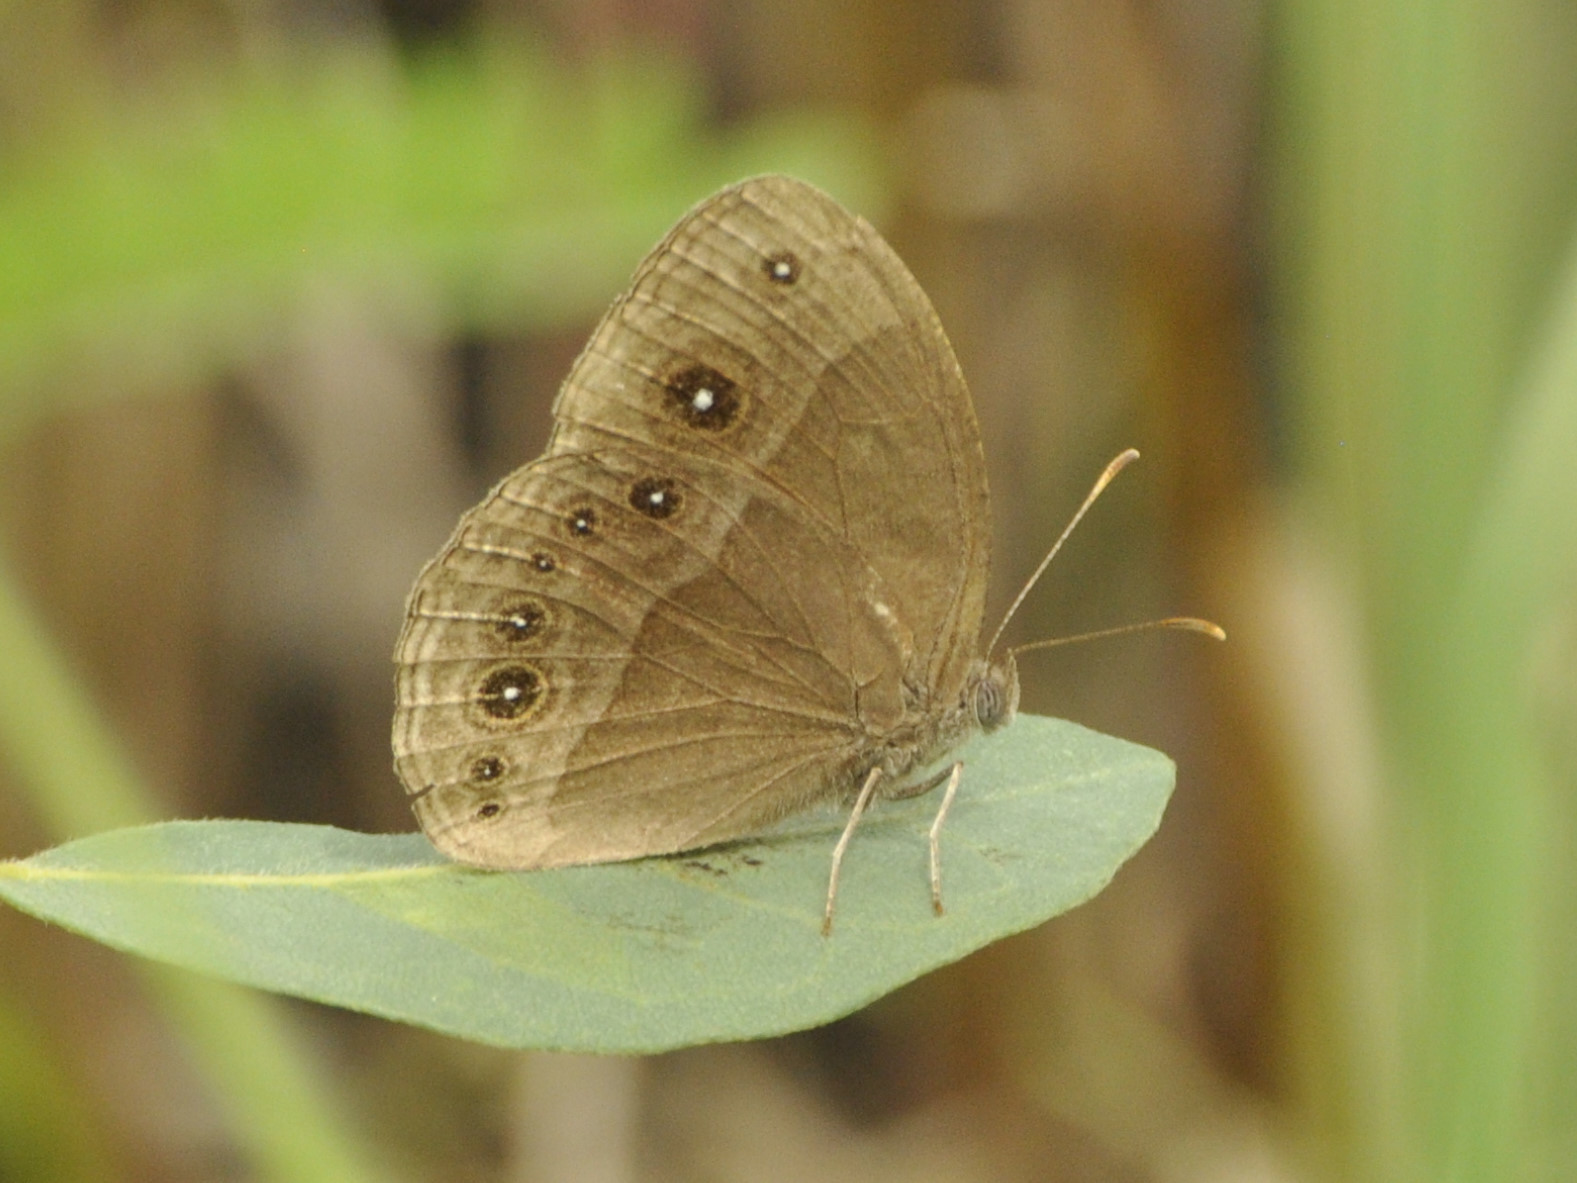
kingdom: Animalia
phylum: Arthropoda
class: Insecta
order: Lepidoptera
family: Nymphalidae
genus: Bicyclus
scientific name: Bicyclus cottrelli
